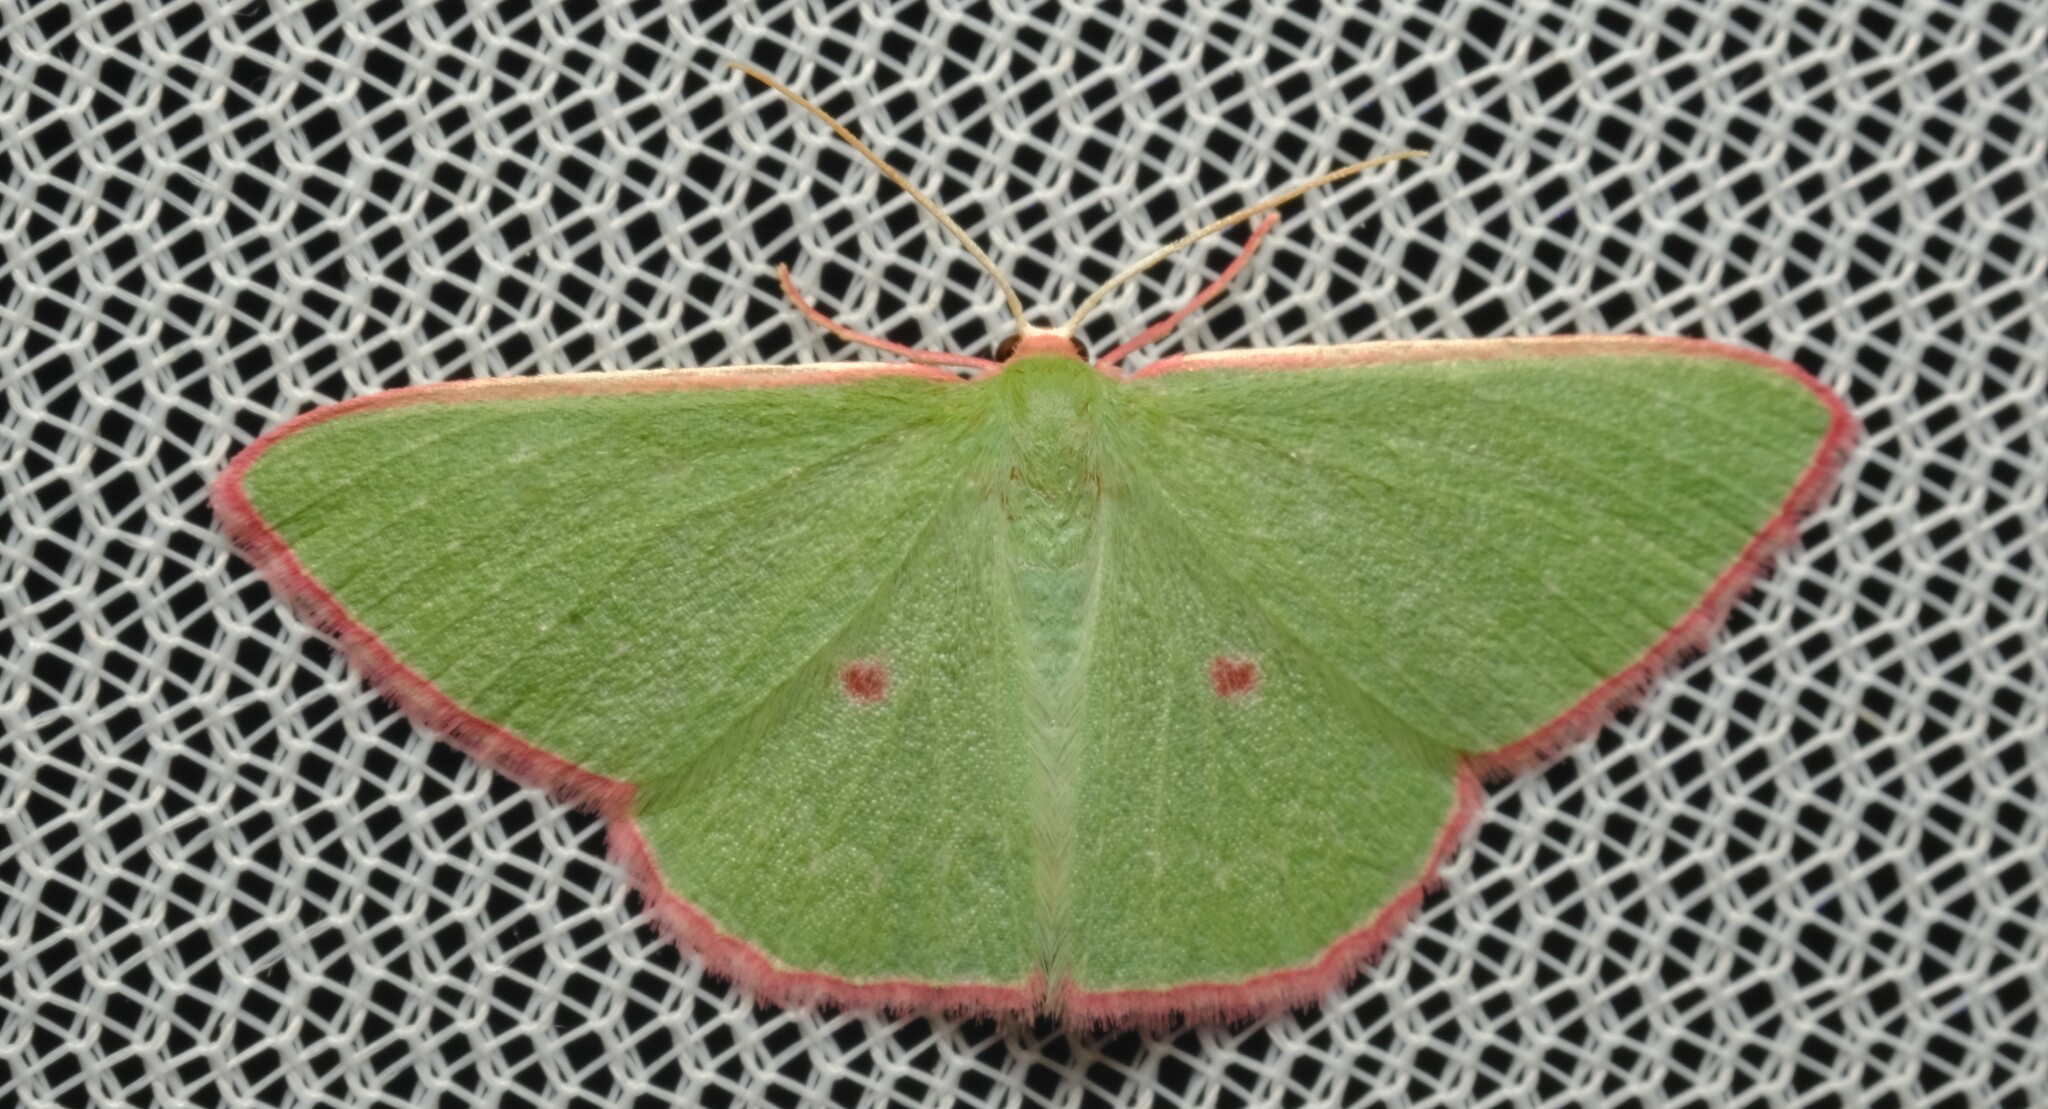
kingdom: Animalia
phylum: Arthropoda
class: Insecta
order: Lepidoptera
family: Geometridae
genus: Chlorocoma
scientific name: Chlorocoma cadmaria
